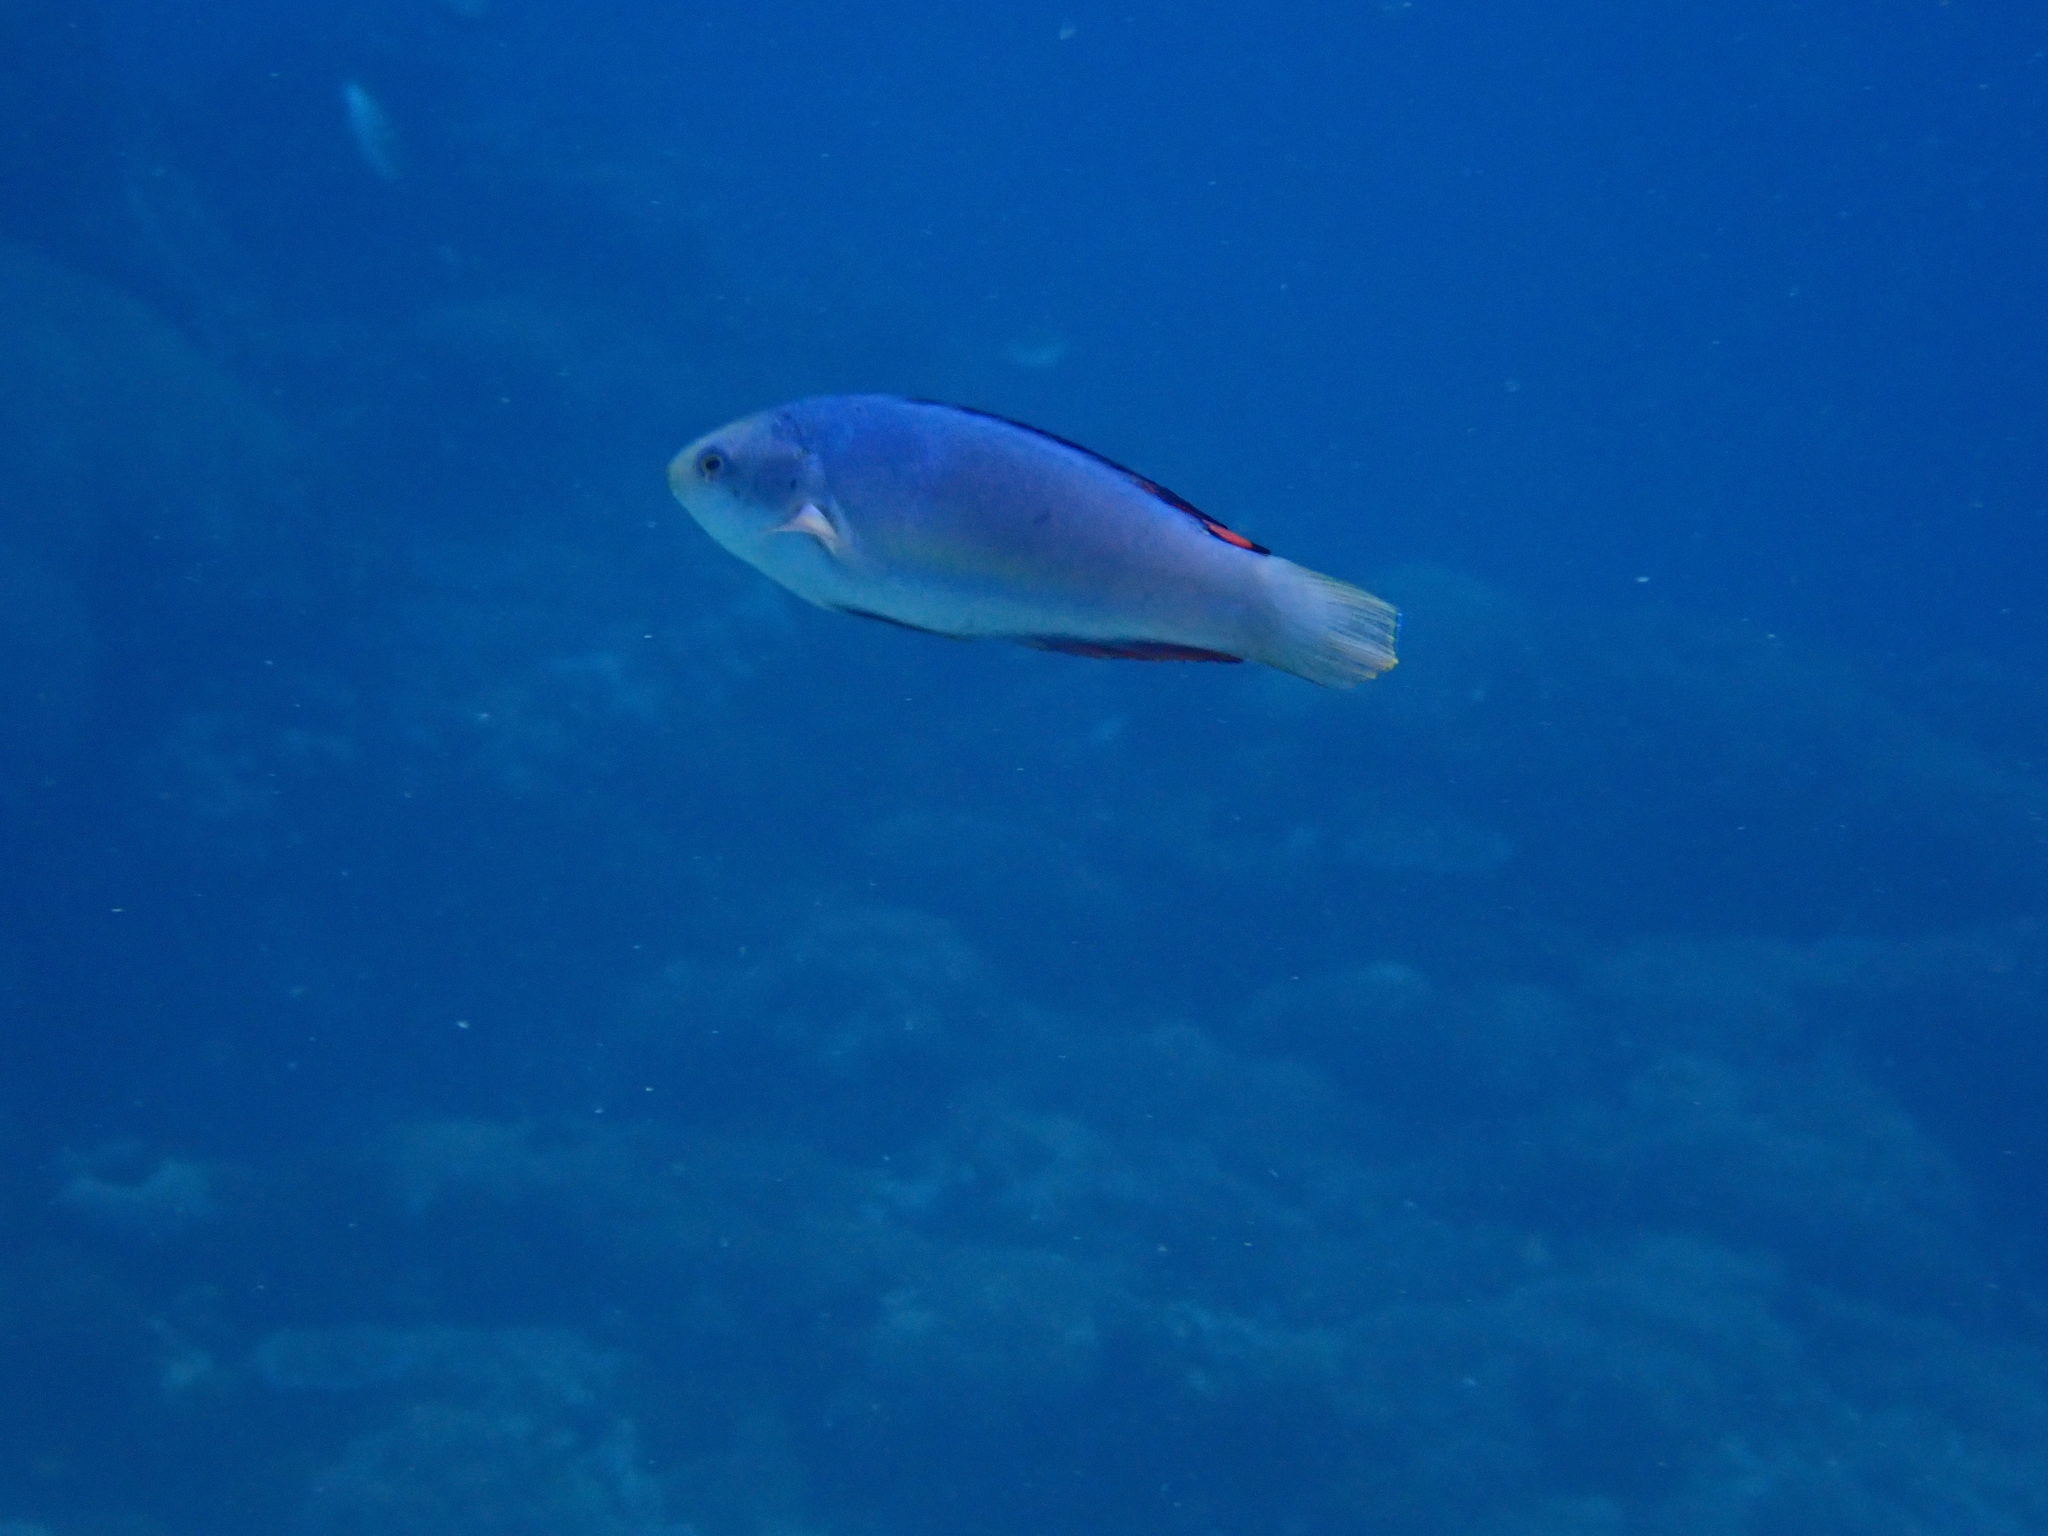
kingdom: Animalia
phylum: Chordata
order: Perciformes
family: Labridae
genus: Cirrhilabrus
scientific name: Cirrhilabrus melanomarginatus
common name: Blackfin fairy-warsse
